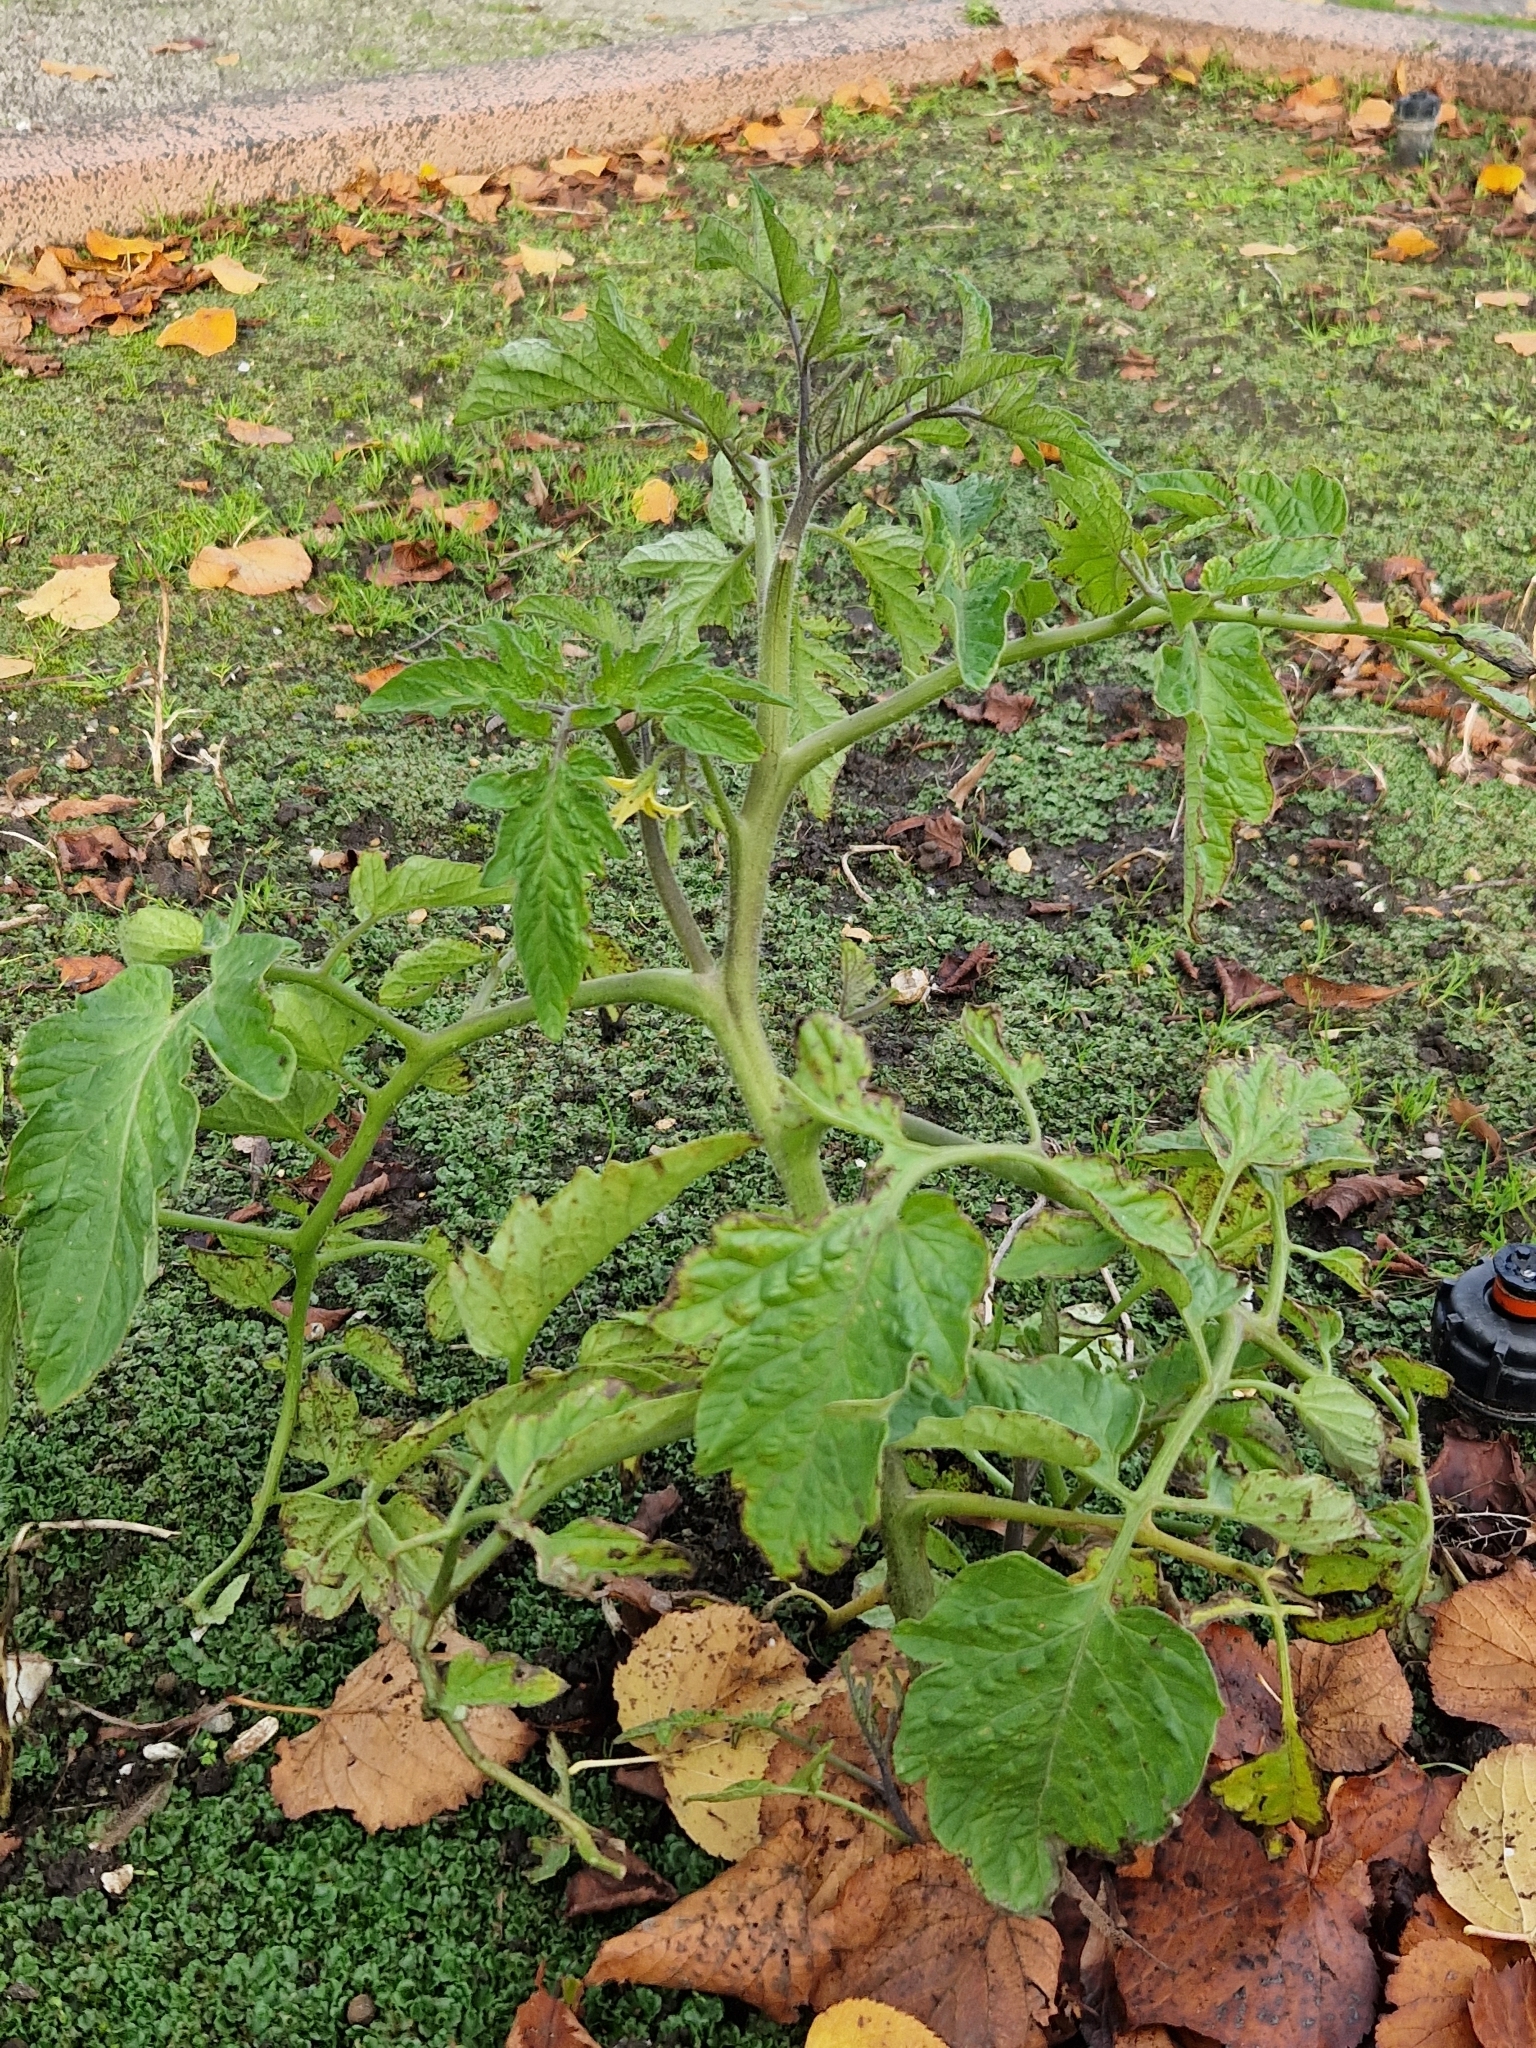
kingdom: Plantae
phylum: Tracheophyta
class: Magnoliopsida
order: Solanales
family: Solanaceae
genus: Solanum
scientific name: Solanum lycopersicum
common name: Garden tomato
